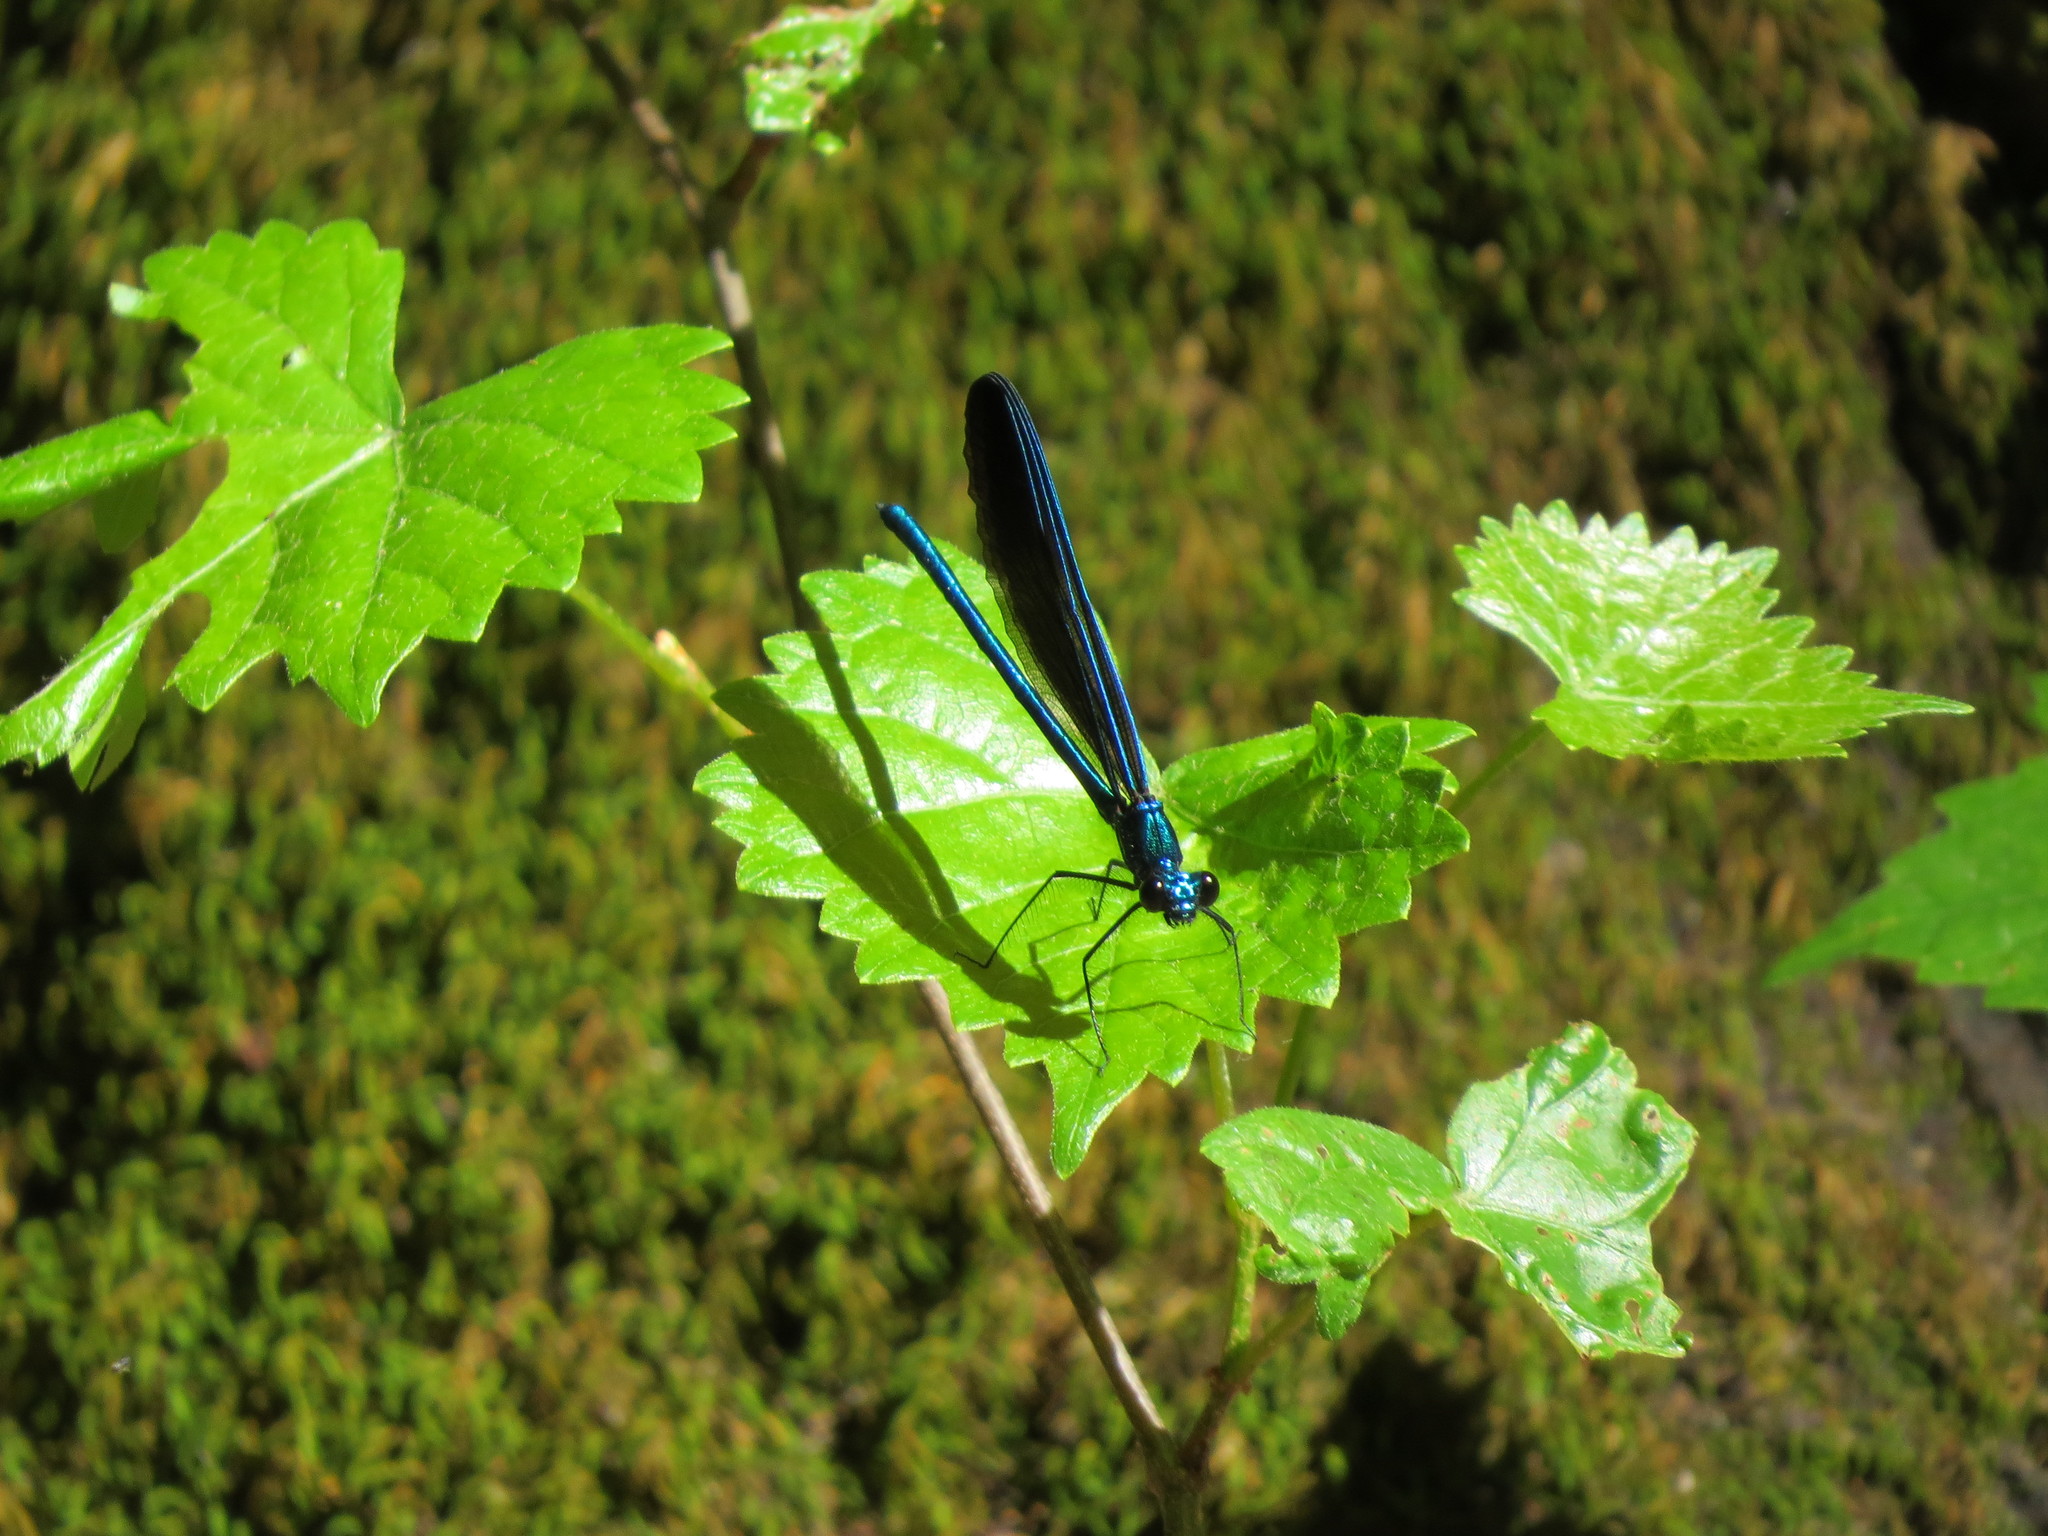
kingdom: Animalia
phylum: Arthropoda
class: Insecta
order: Odonata
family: Calopterygidae
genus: Calopteryx
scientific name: Calopteryx maculata
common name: Ebony jewelwing
